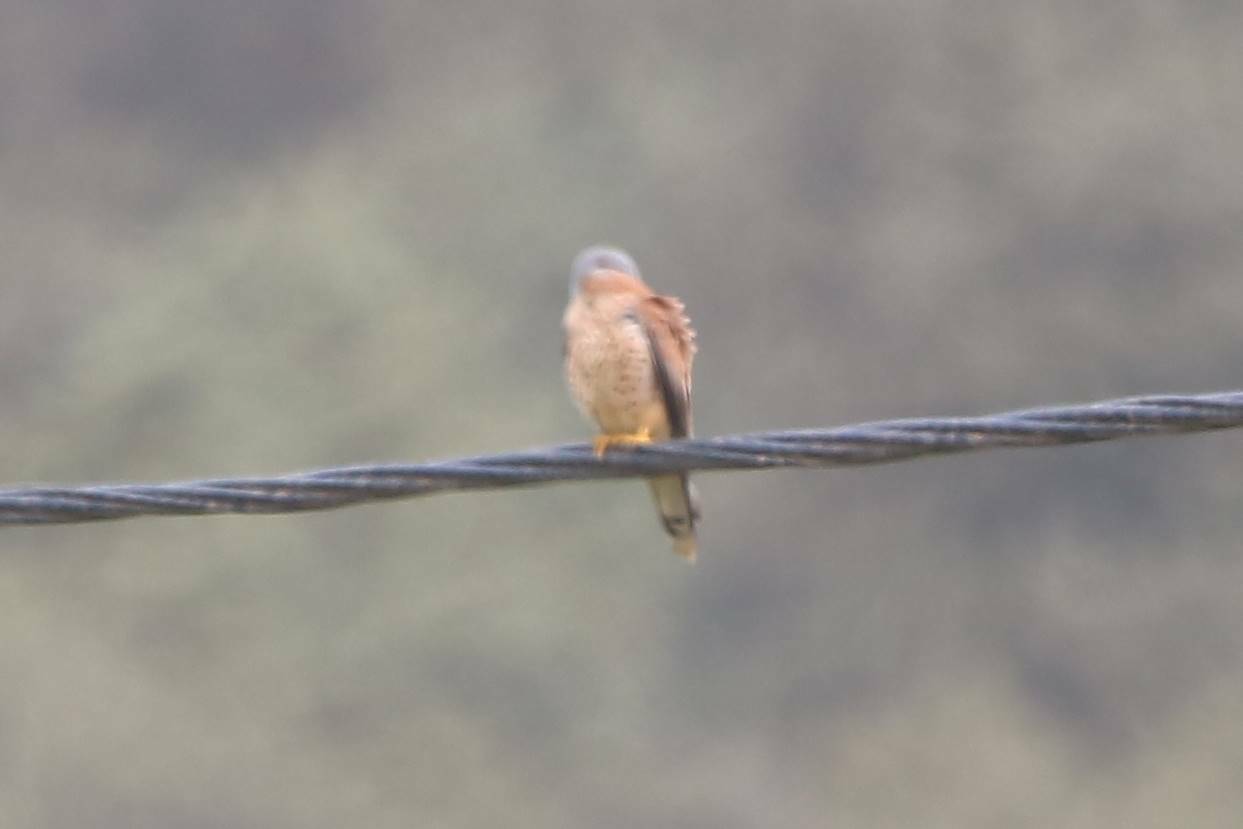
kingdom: Animalia
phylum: Chordata
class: Aves
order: Falconiformes
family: Falconidae
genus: Falco
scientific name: Falco naumanni
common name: Lesser kestrel
